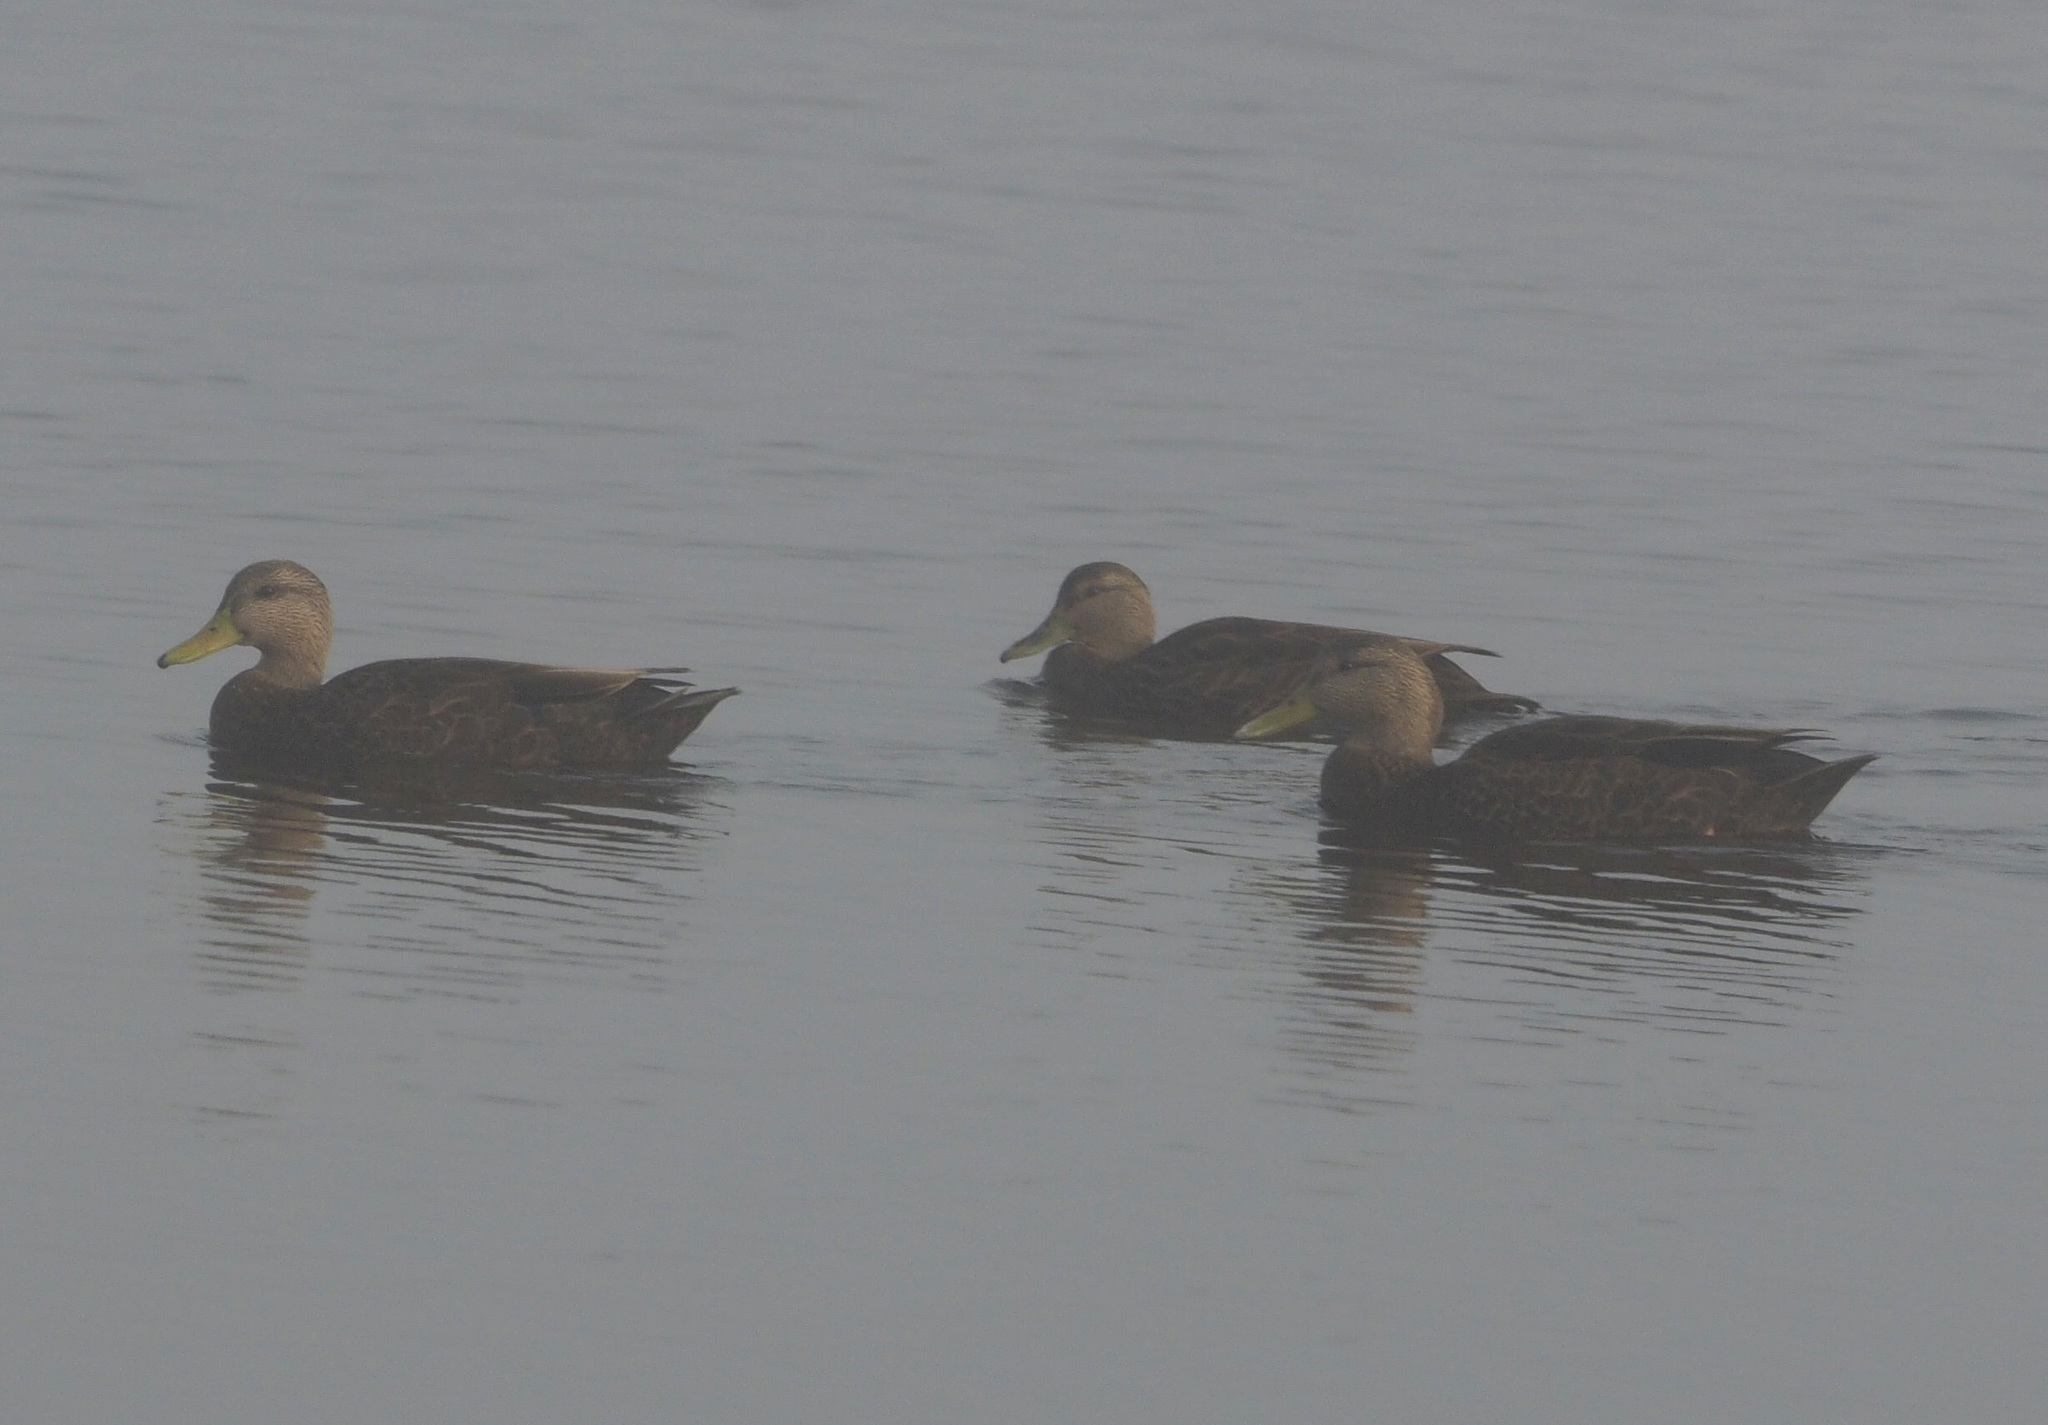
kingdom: Animalia
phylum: Chordata
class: Aves
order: Anseriformes
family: Anatidae
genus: Anas
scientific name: Anas rubripes
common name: American black duck
